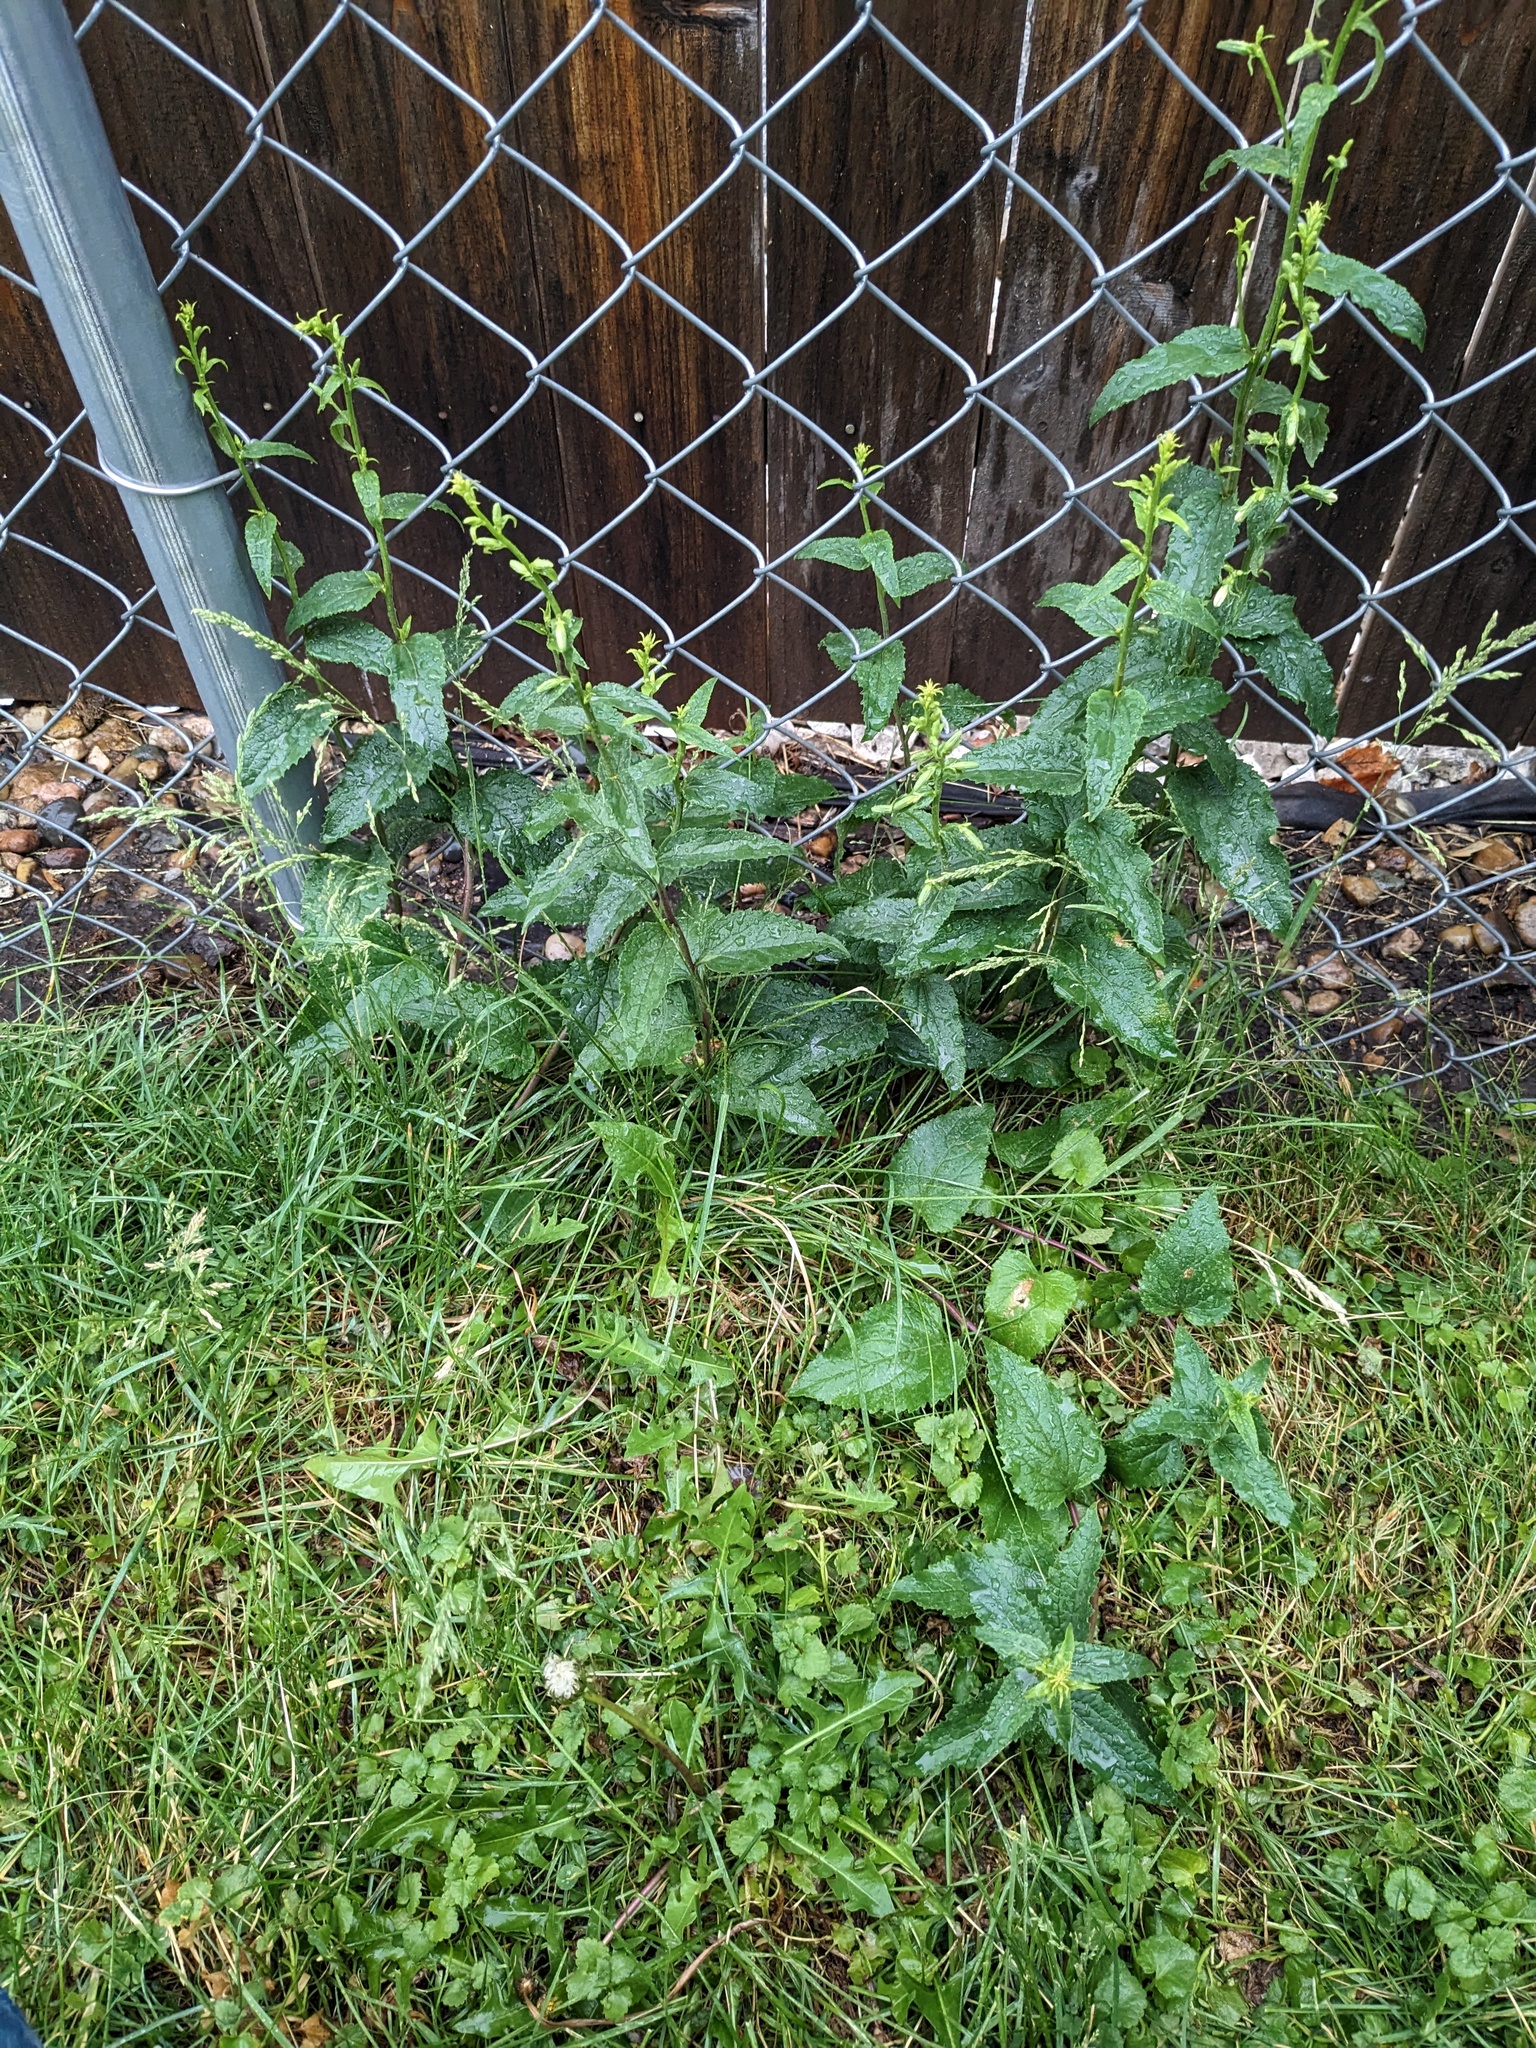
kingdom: Plantae
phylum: Tracheophyta
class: Magnoliopsida
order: Asterales
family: Campanulaceae
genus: Campanula
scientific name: Campanula rapunculoides
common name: Creeping bellflower
